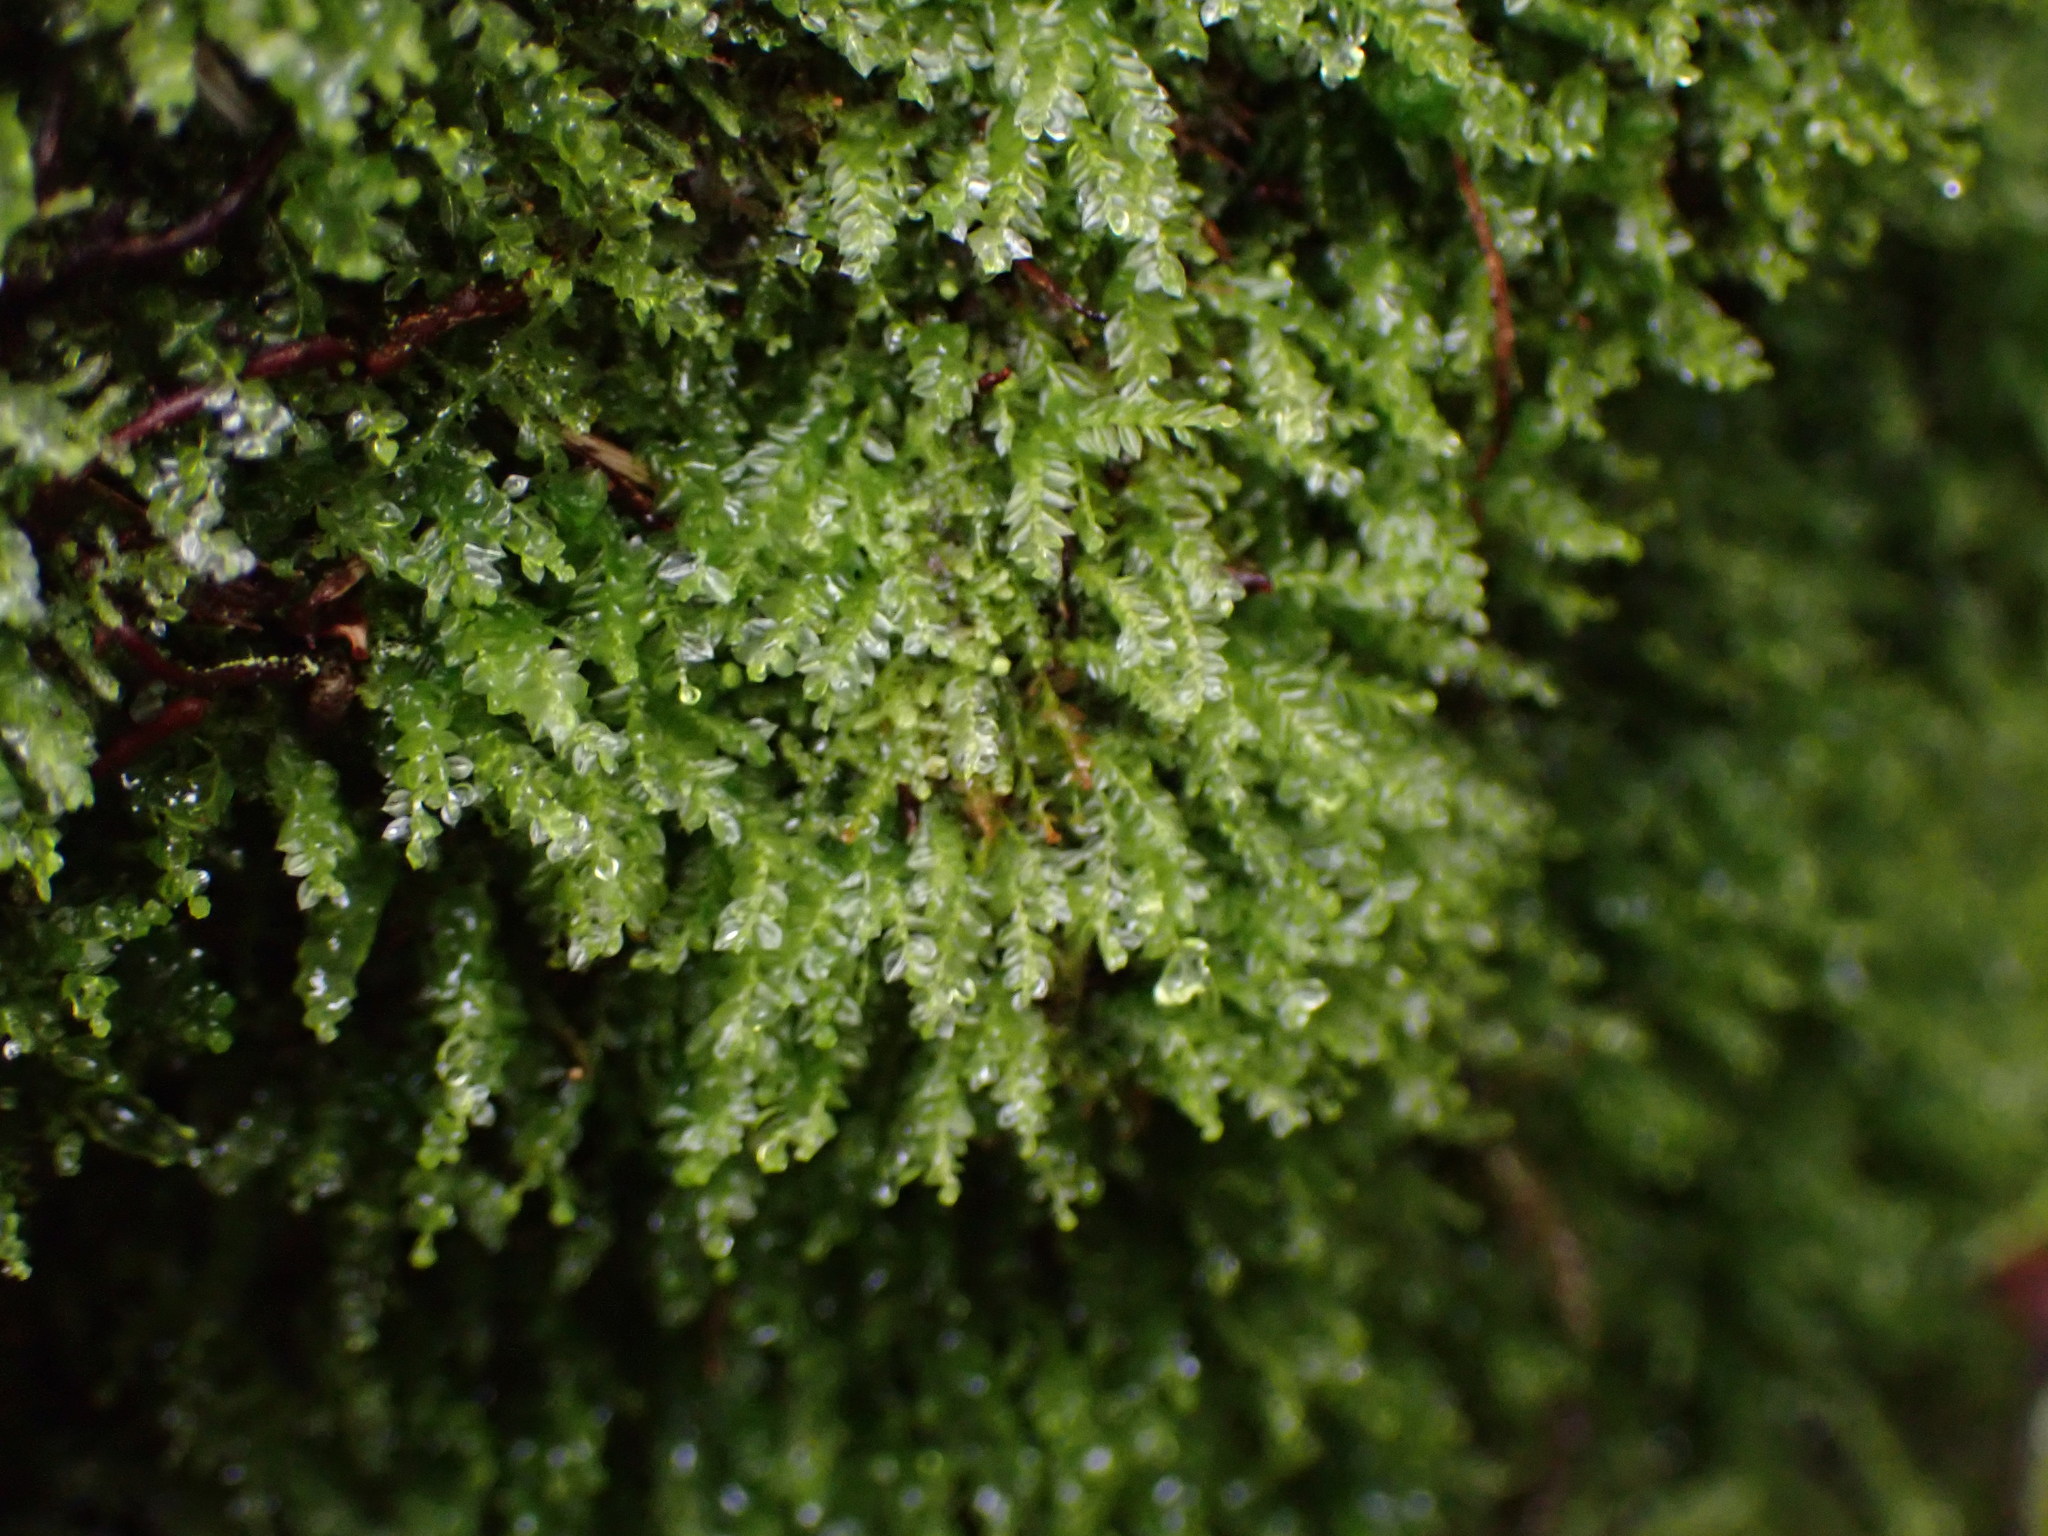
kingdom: Plantae
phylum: Bryophyta
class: Polytrichopsida
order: Tetraphidales
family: Tetraphidaceae
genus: Tetraphis
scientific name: Tetraphis pellucida
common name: Common four-toothed moss
